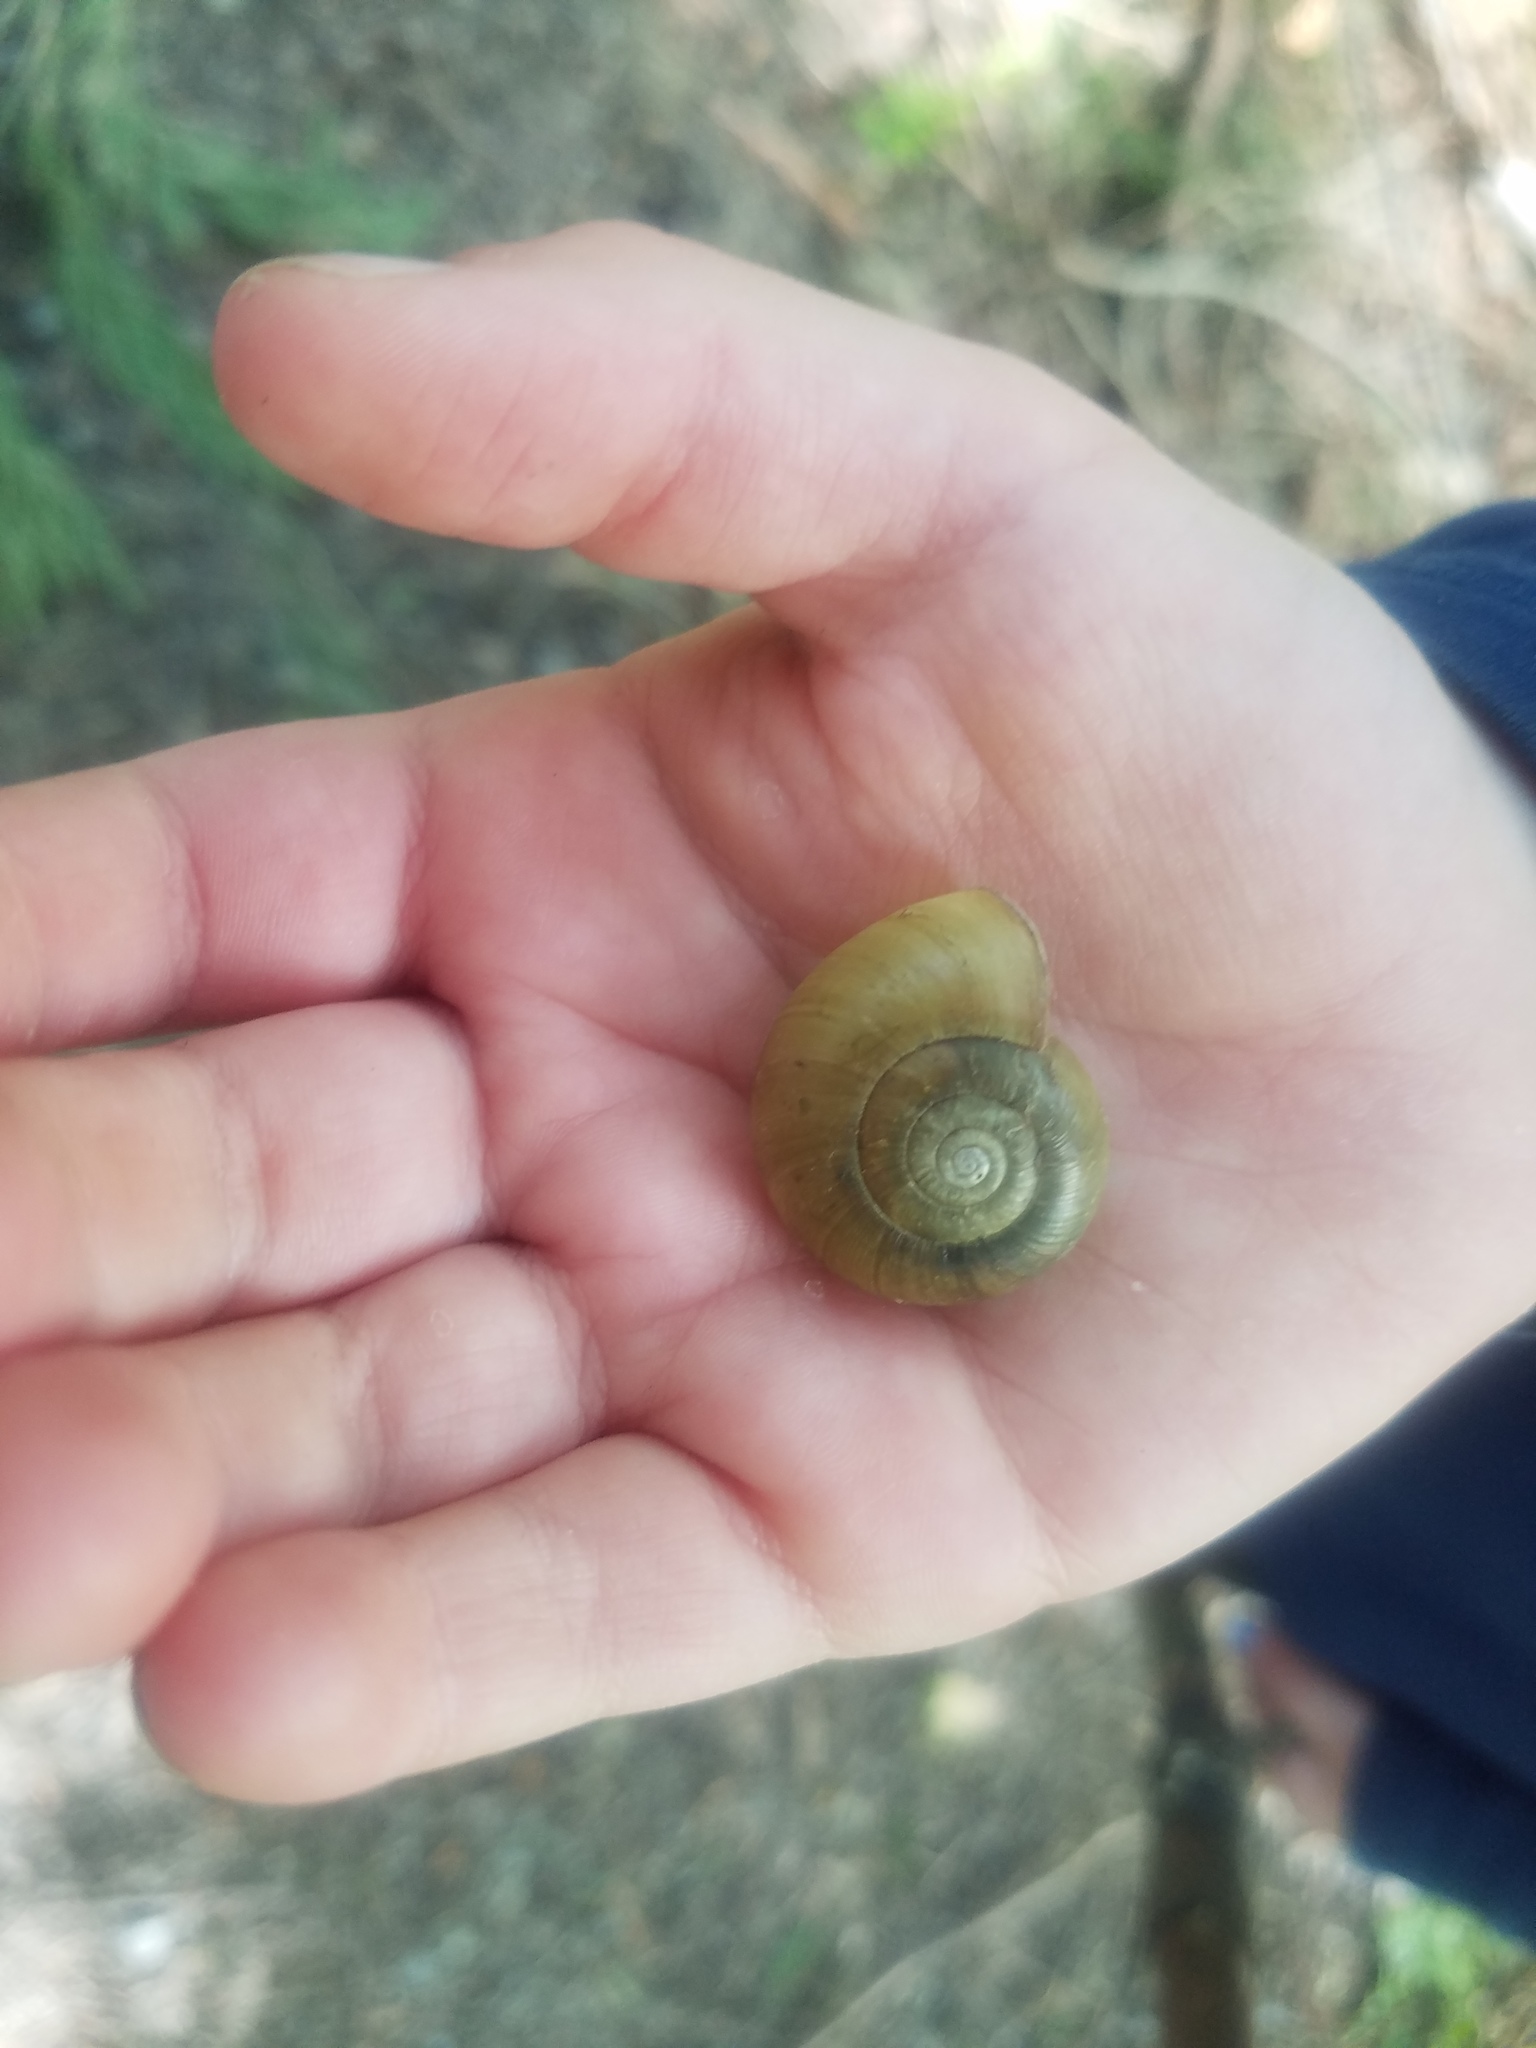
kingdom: Animalia
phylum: Mollusca
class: Gastropoda
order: Stylommatophora
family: Haplotrematidae
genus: Haplotrema
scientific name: Haplotrema vancouverense
